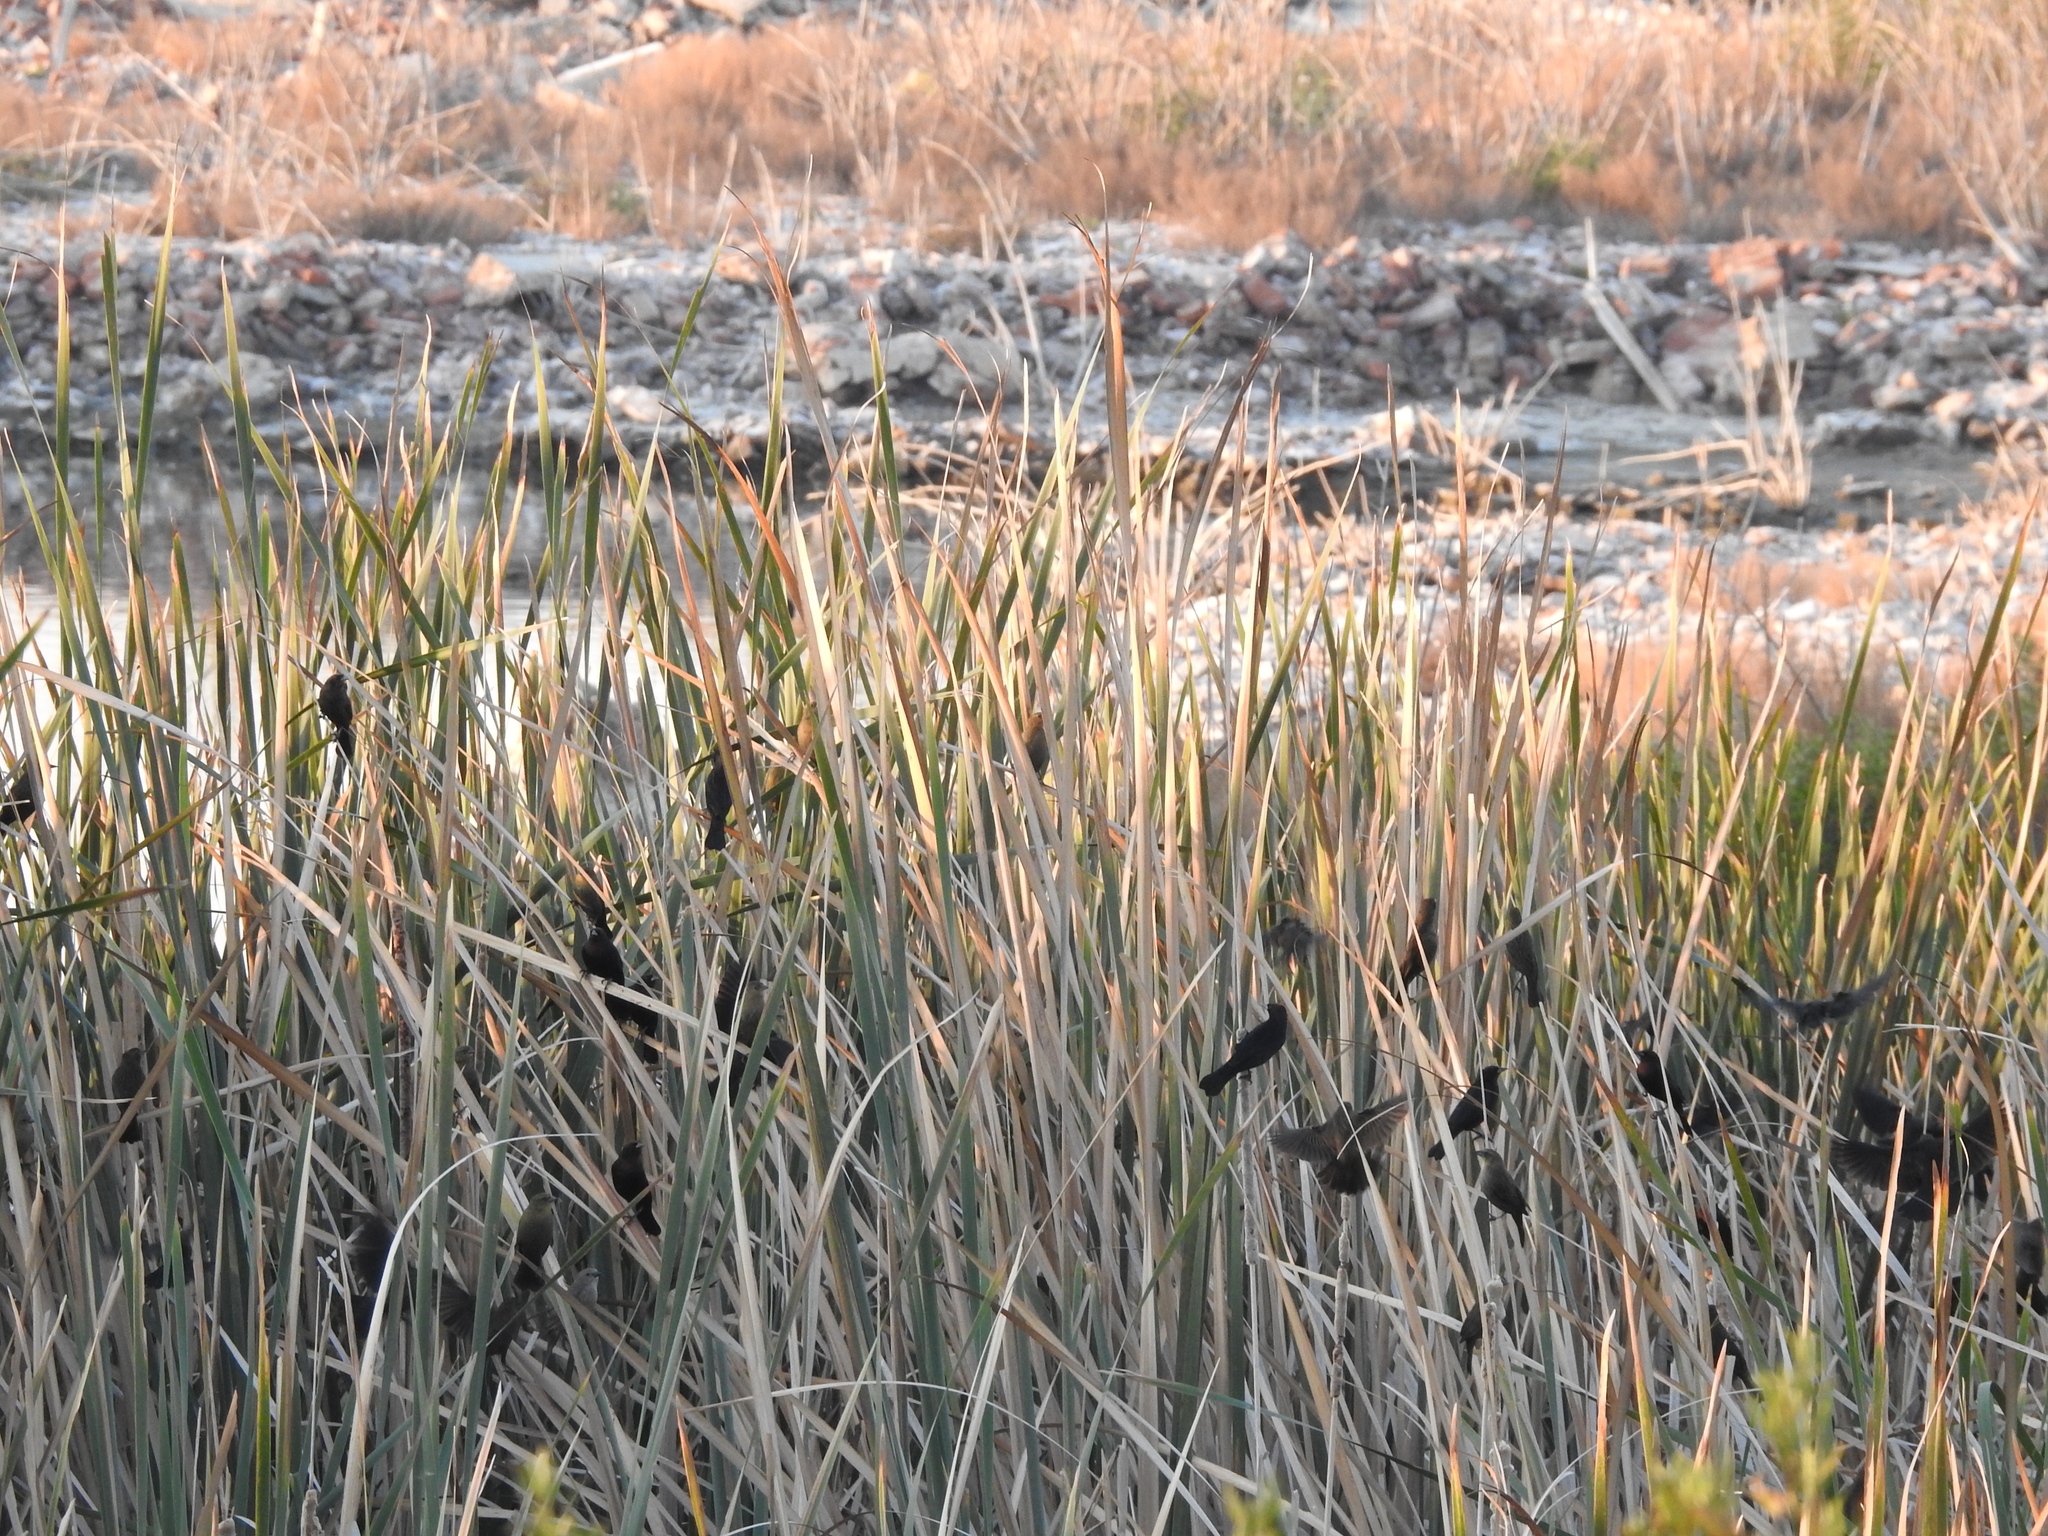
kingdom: Animalia
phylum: Chordata
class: Aves
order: Passeriformes
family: Icteridae
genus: Chrysomus
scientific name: Chrysomus ruficapillus
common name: Chestnut-capped blackbird
